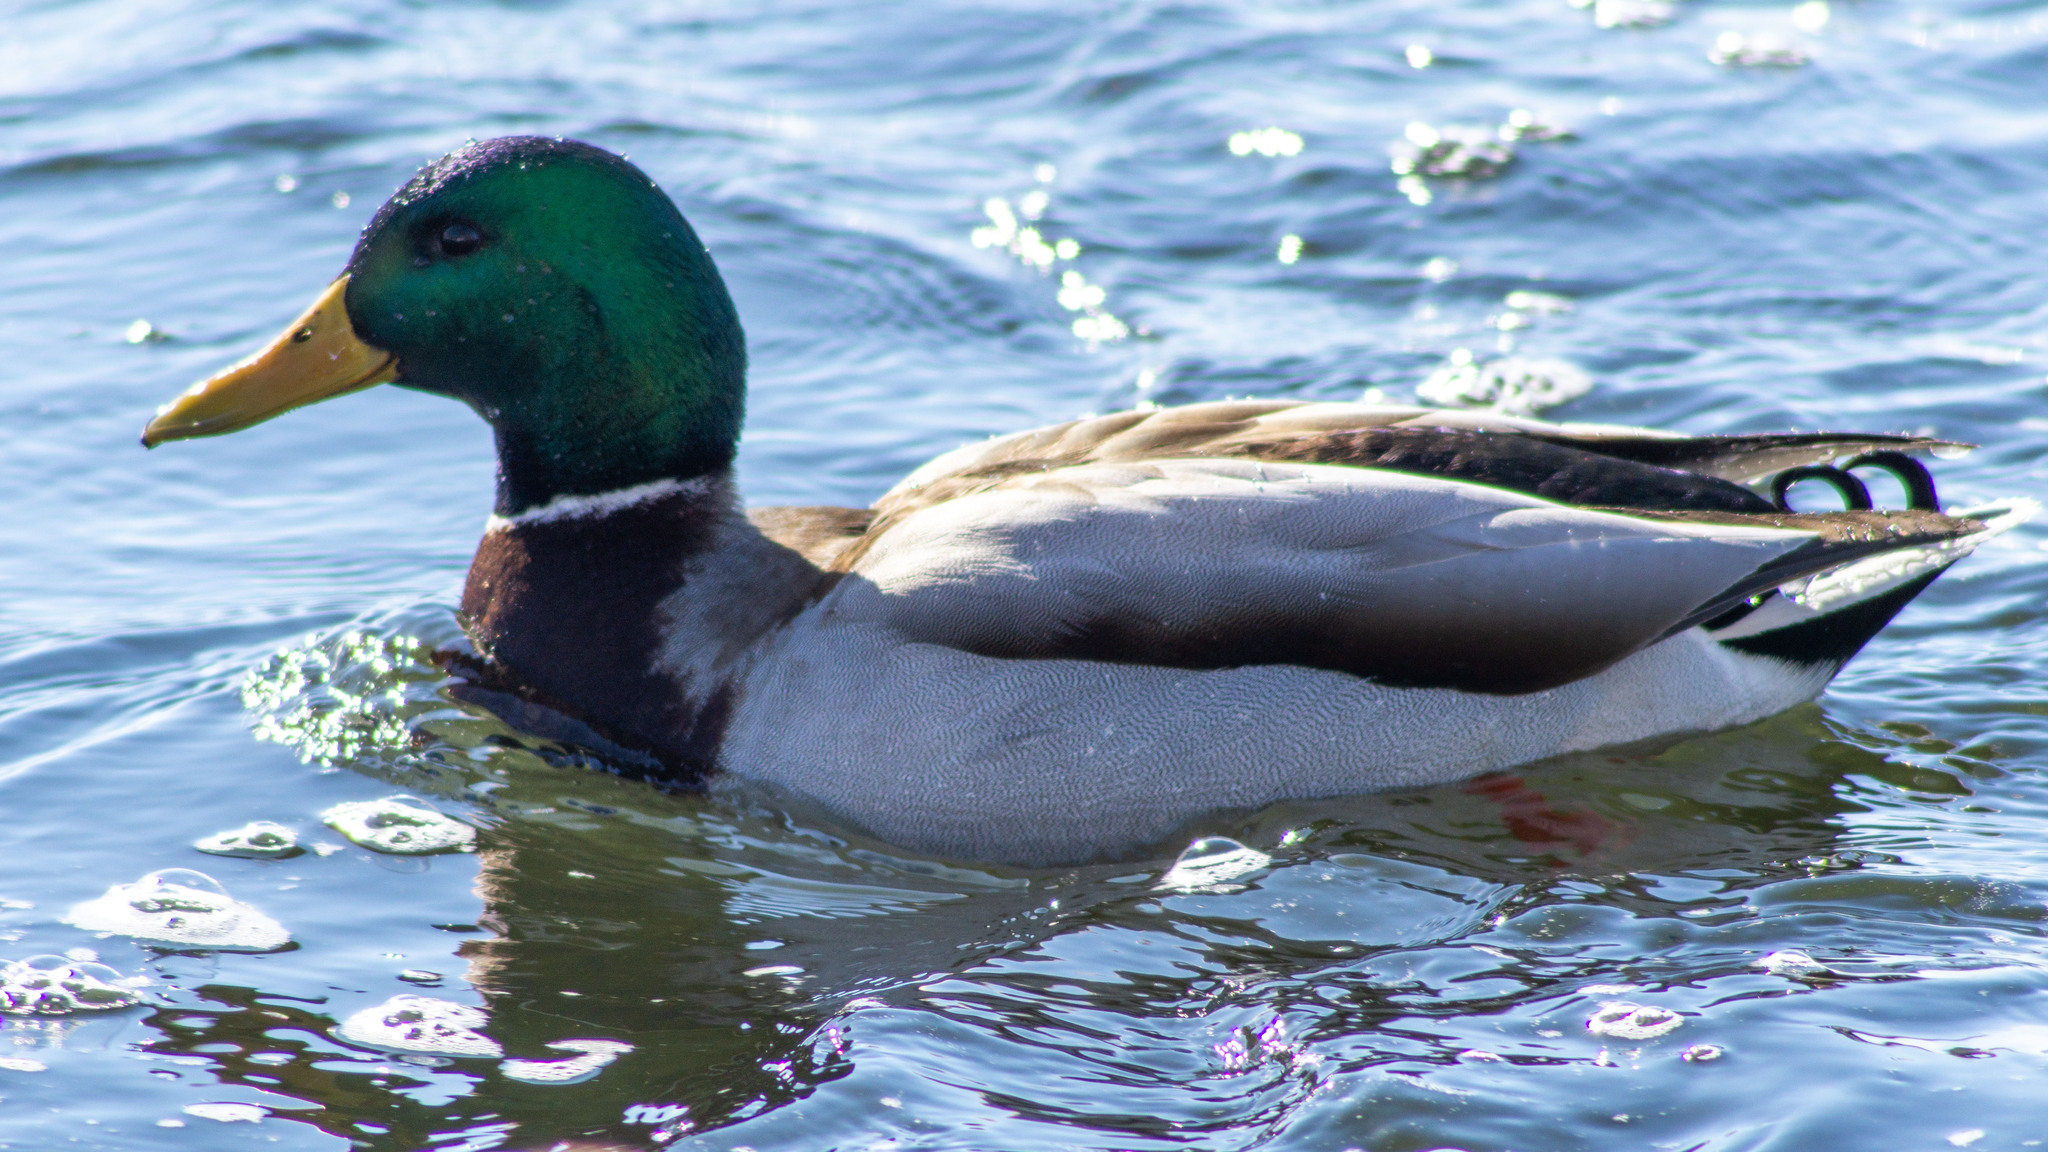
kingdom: Animalia
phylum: Chordata
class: Aves
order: Anseriformes
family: Anatidae
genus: Anas
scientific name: Anas platyrhynchos
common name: Mallard
